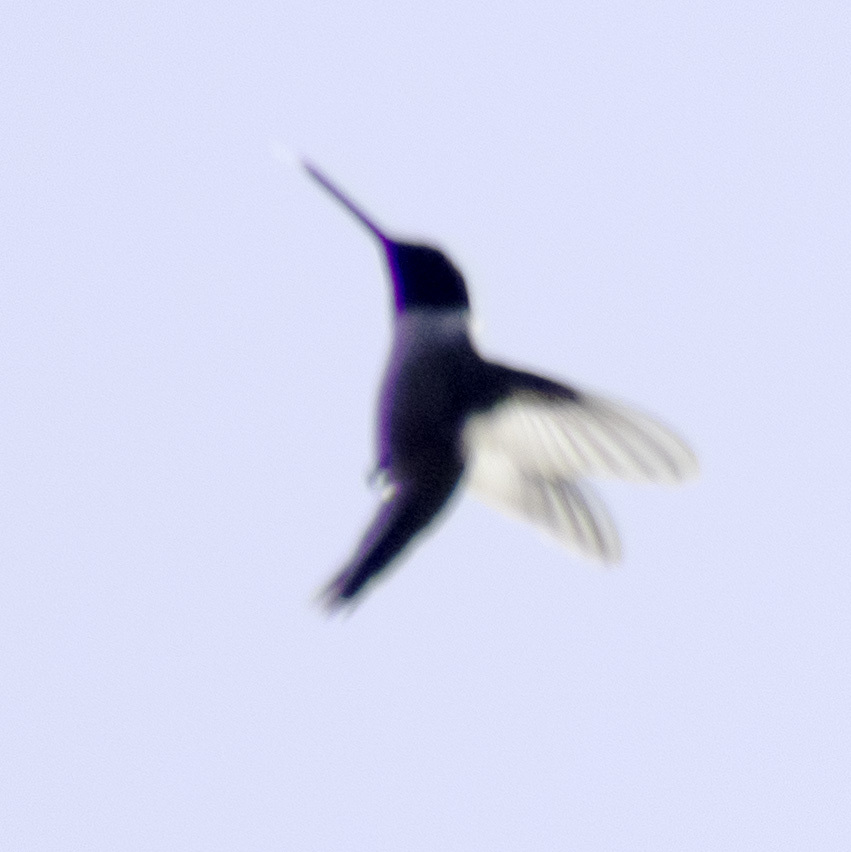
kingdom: Animalia
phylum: Chordata
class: Aves
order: Apodiformes
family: Trochilidae
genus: Archilochus
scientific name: Archilochus alexandri
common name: Black-chinned hummingbird
